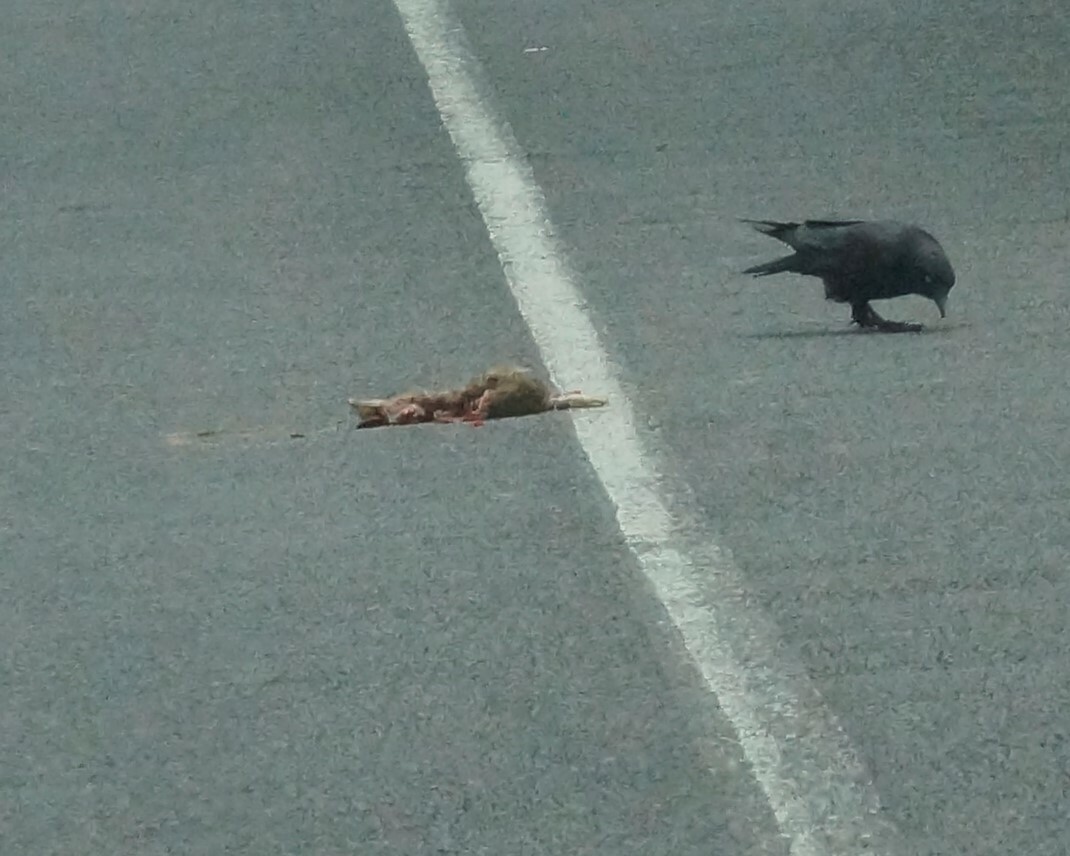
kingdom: Animalia
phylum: Chordata
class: Mammalia
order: Lagomorpha
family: Leporidae
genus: Oryctolagus
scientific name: Oryctolagus cuniculus
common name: European rabbit
